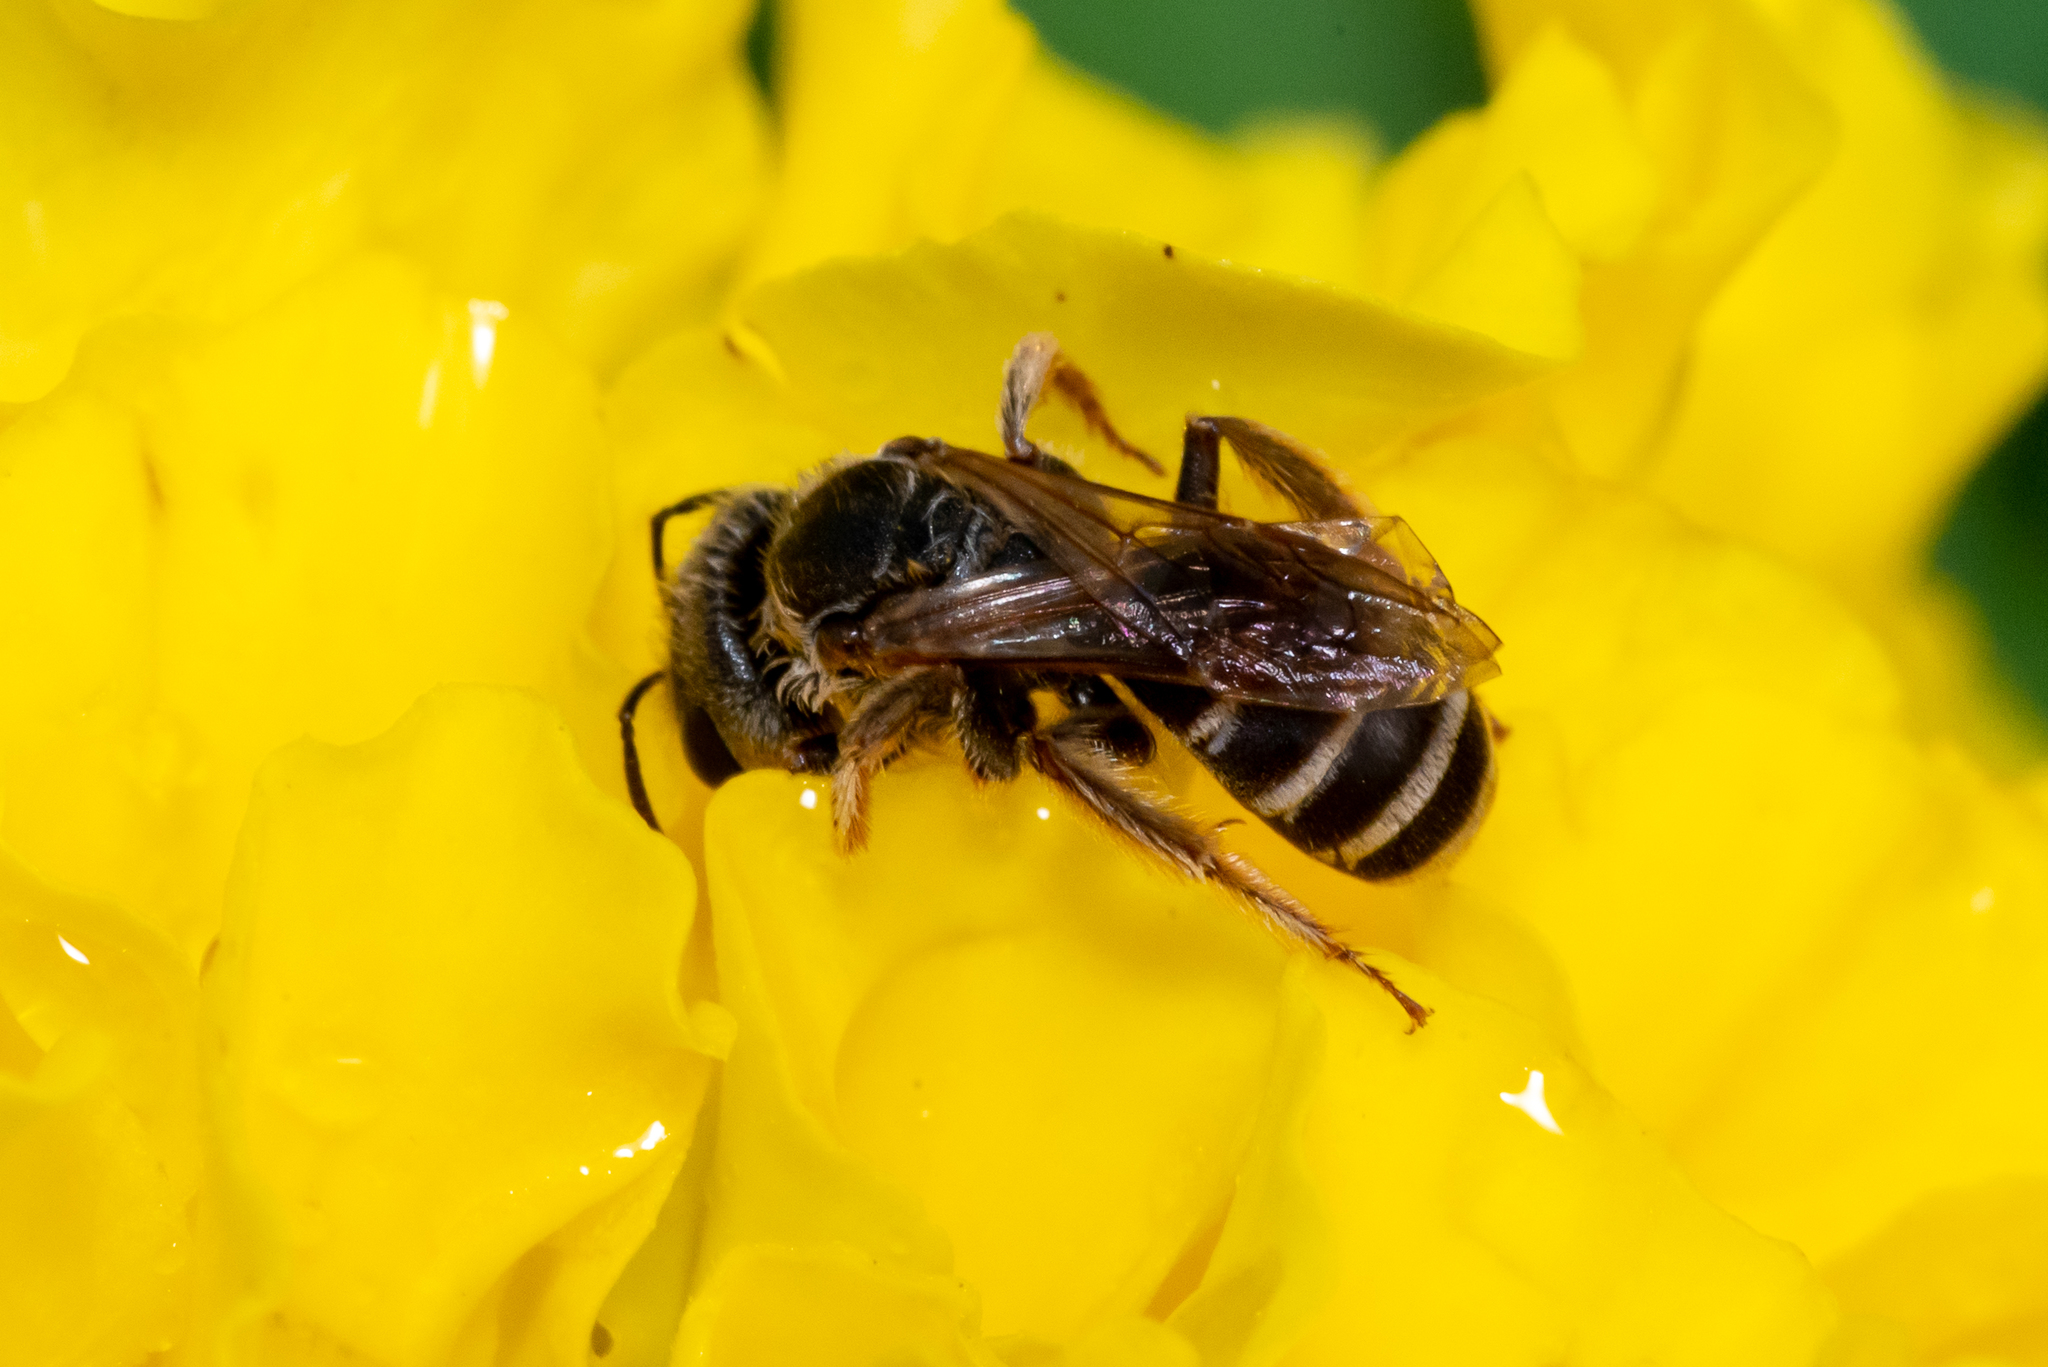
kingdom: Animalia
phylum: Arthropoda
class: Insecta
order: Hymenoptera
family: Halictidae
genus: Halictus
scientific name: Halictus ligatus
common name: Ligated furrow bee
